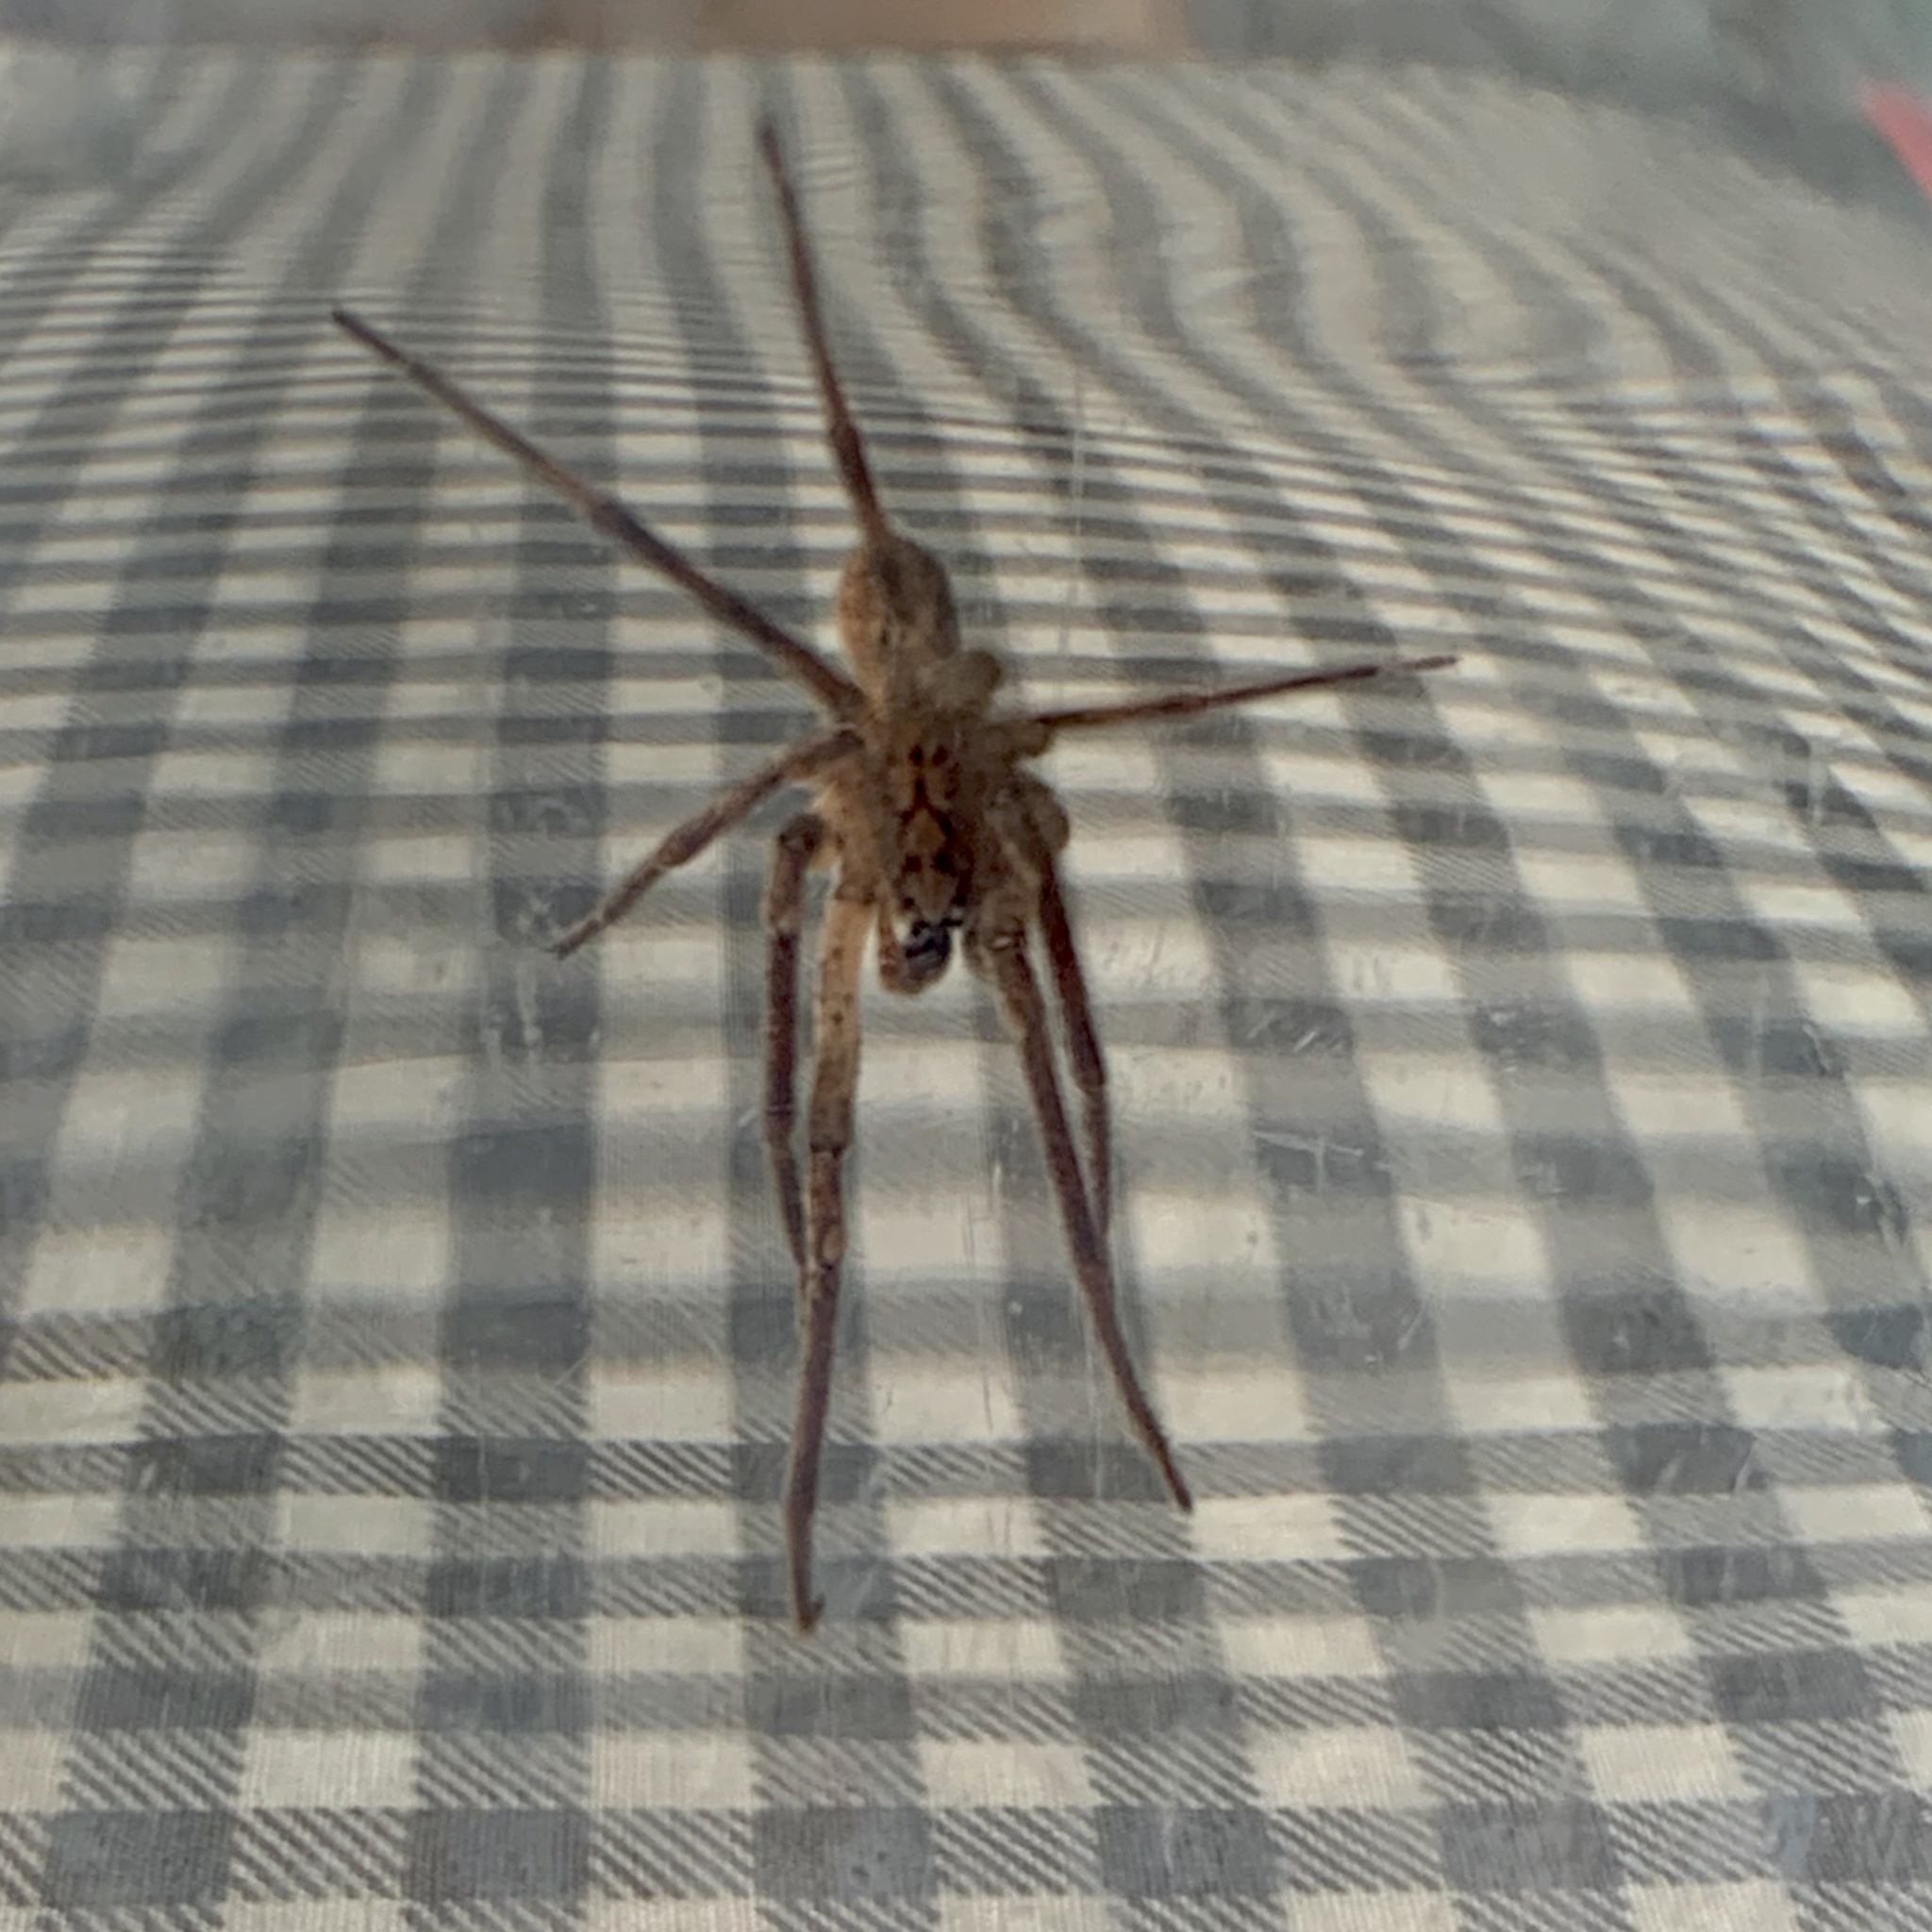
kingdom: Animalia
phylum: Arthropoda
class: Arachnida
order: Araneae
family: Zoropsidae
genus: Zoropsis
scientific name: Zoropsis spinimana
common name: Zoropsid spider
